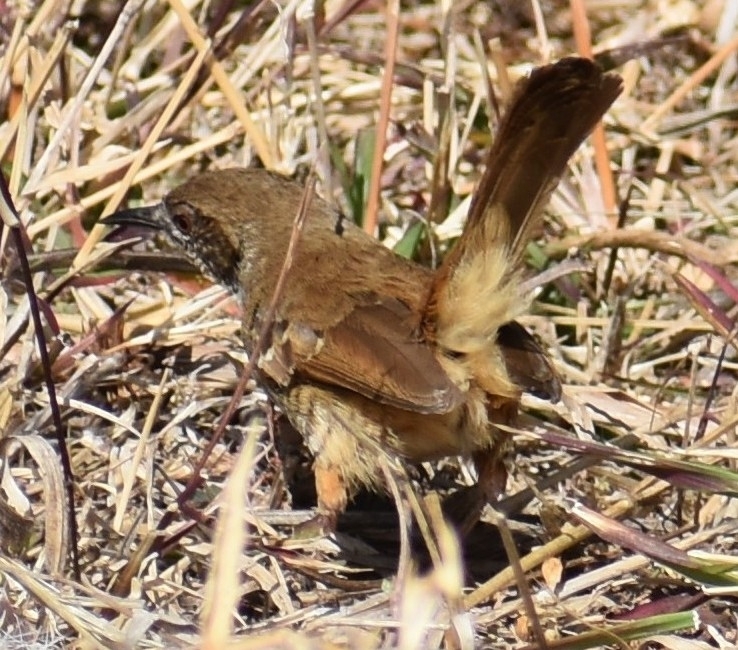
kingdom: Animalia
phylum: Chordata
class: Aves
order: Passeriformes
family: Cisticolidae
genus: Calamonastes
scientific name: Calamonastes fasciolatus
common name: Barred wren-warbler
